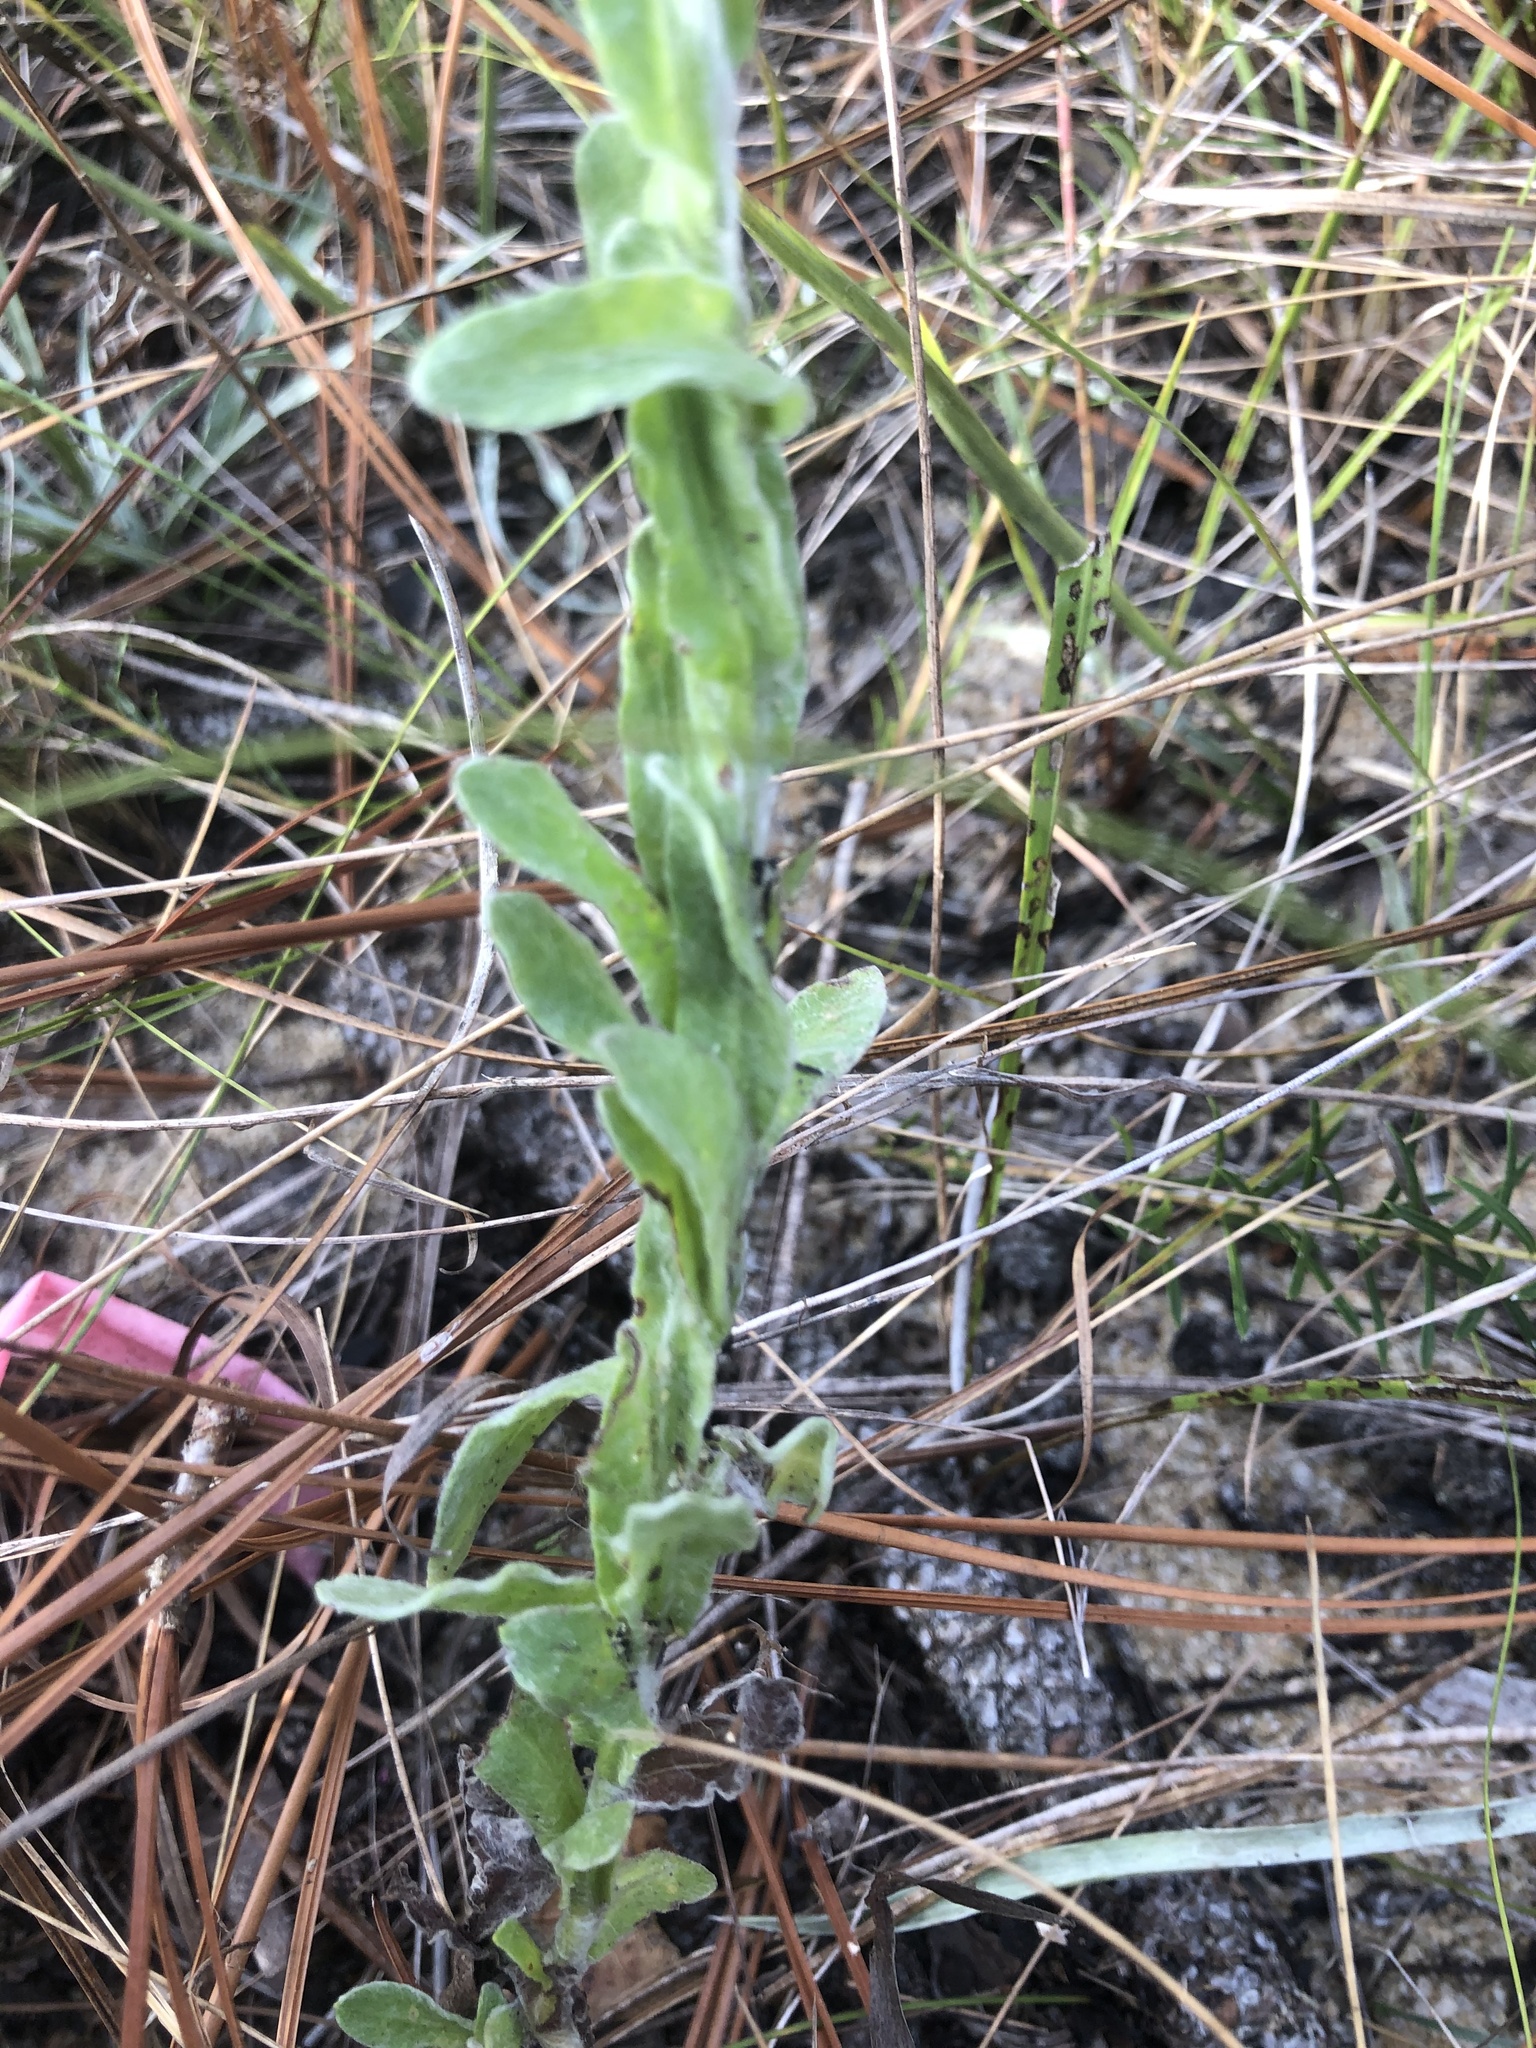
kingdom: Plantae
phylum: Tracheophyta
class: Magnoliopsida
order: Asterales
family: Asteraceae
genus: Chrysopsis
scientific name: Chrysopsis gossypina
